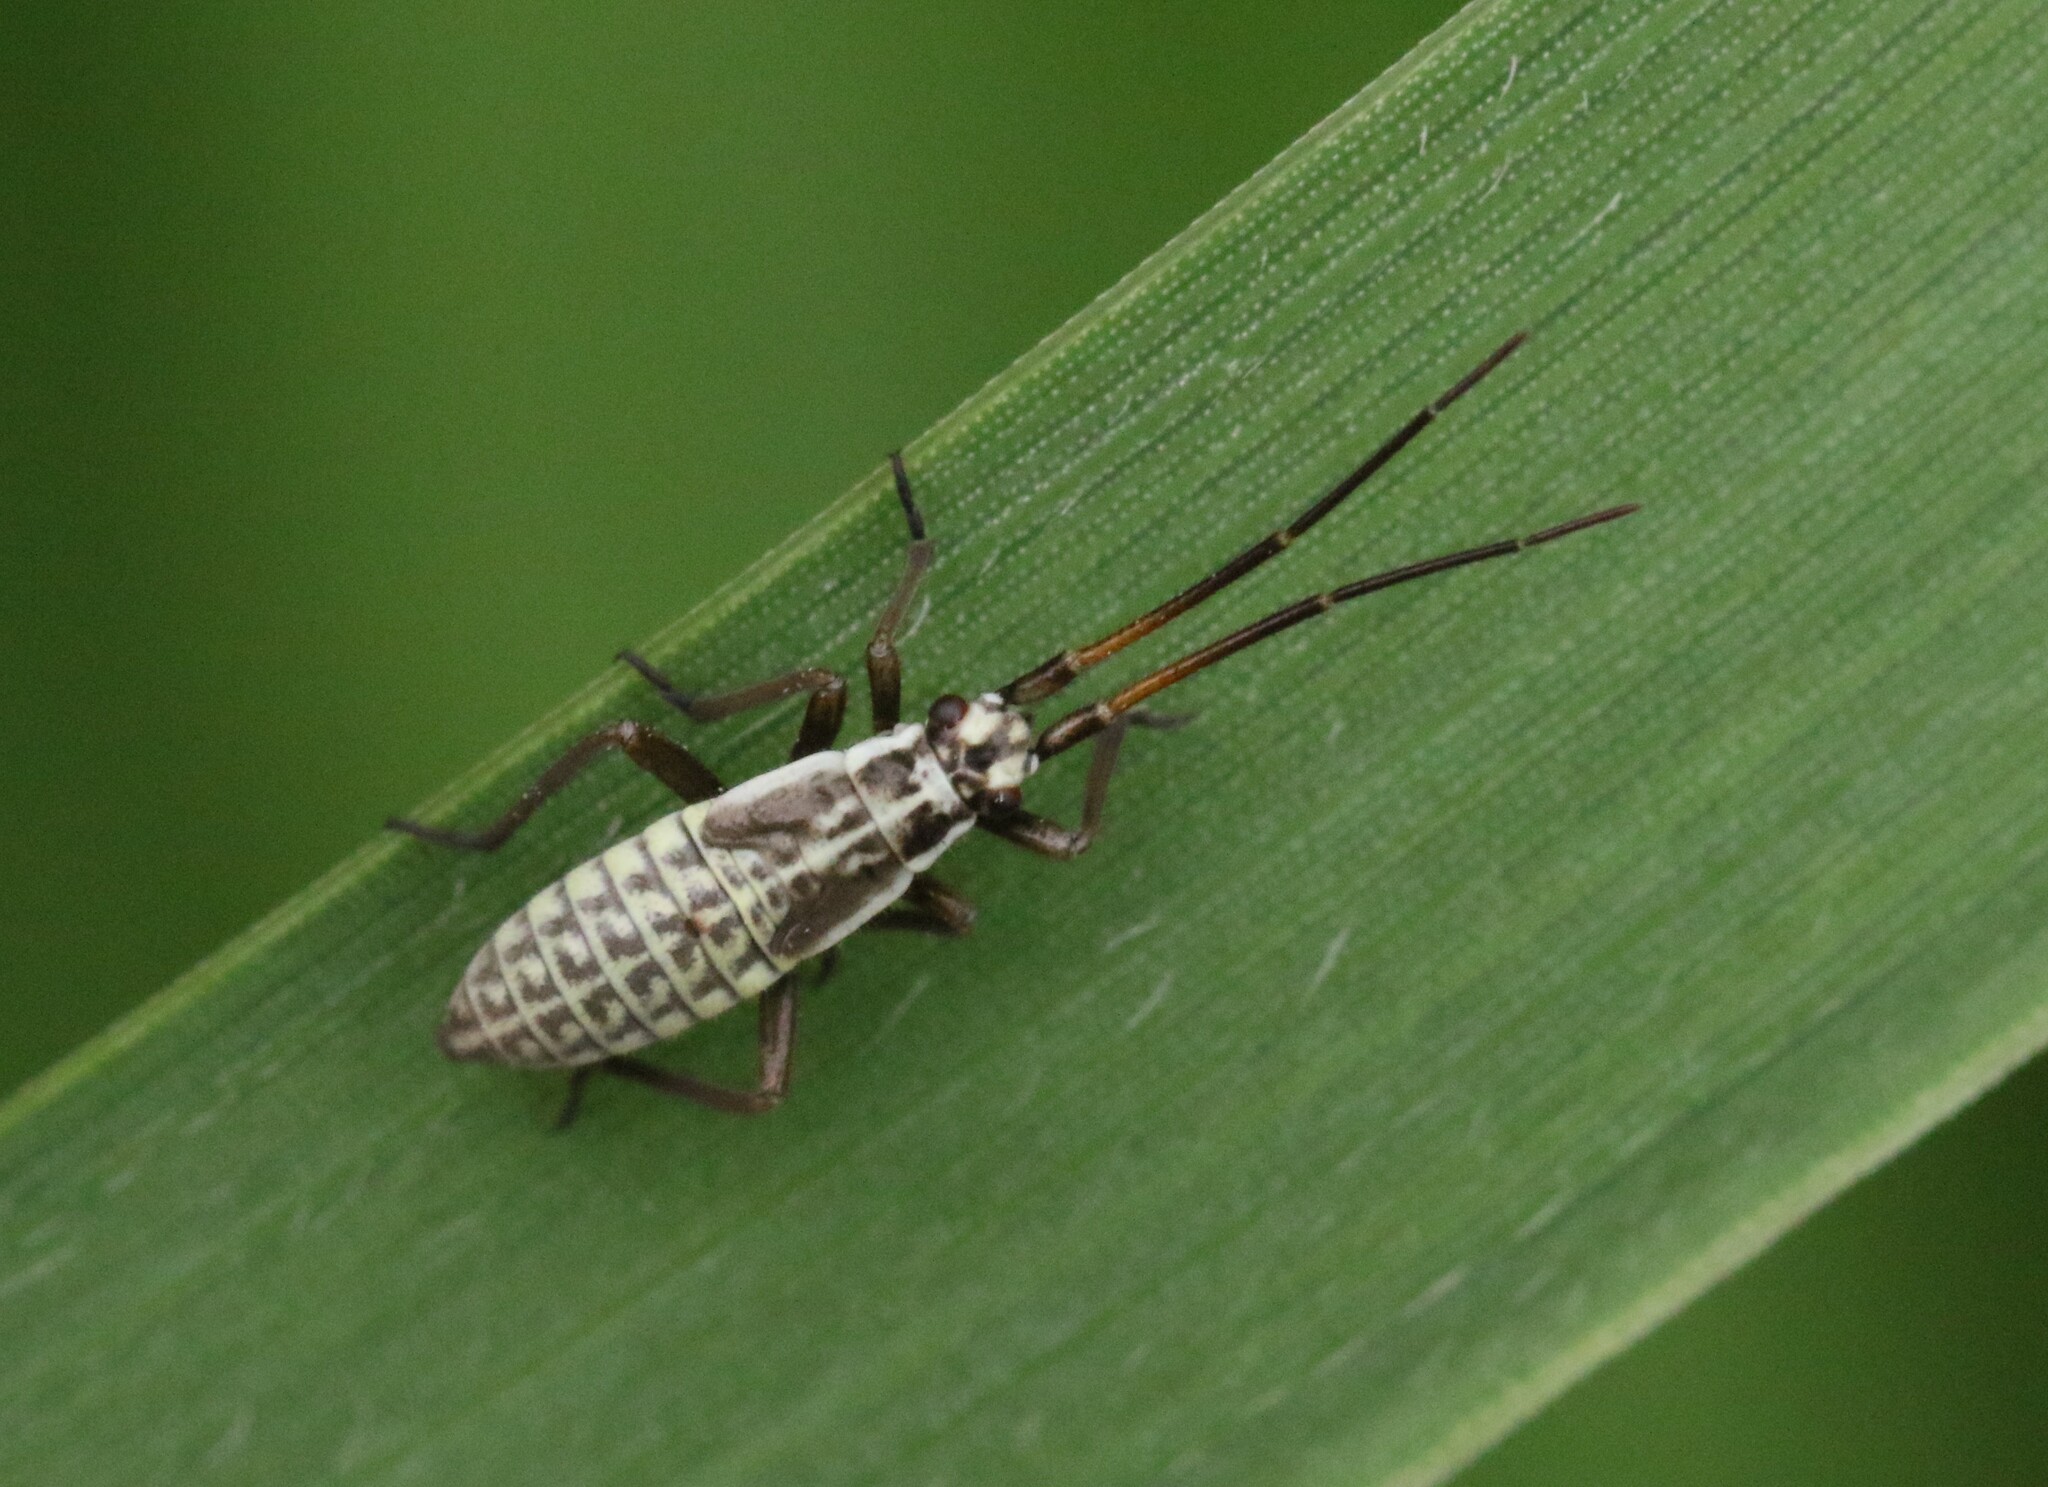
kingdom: Animalia
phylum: Arthropoda
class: Insecta
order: Hemiptera
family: Miridae
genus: Leptopterna
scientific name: Leptopterna dolabrata
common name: Meadow plant bug
